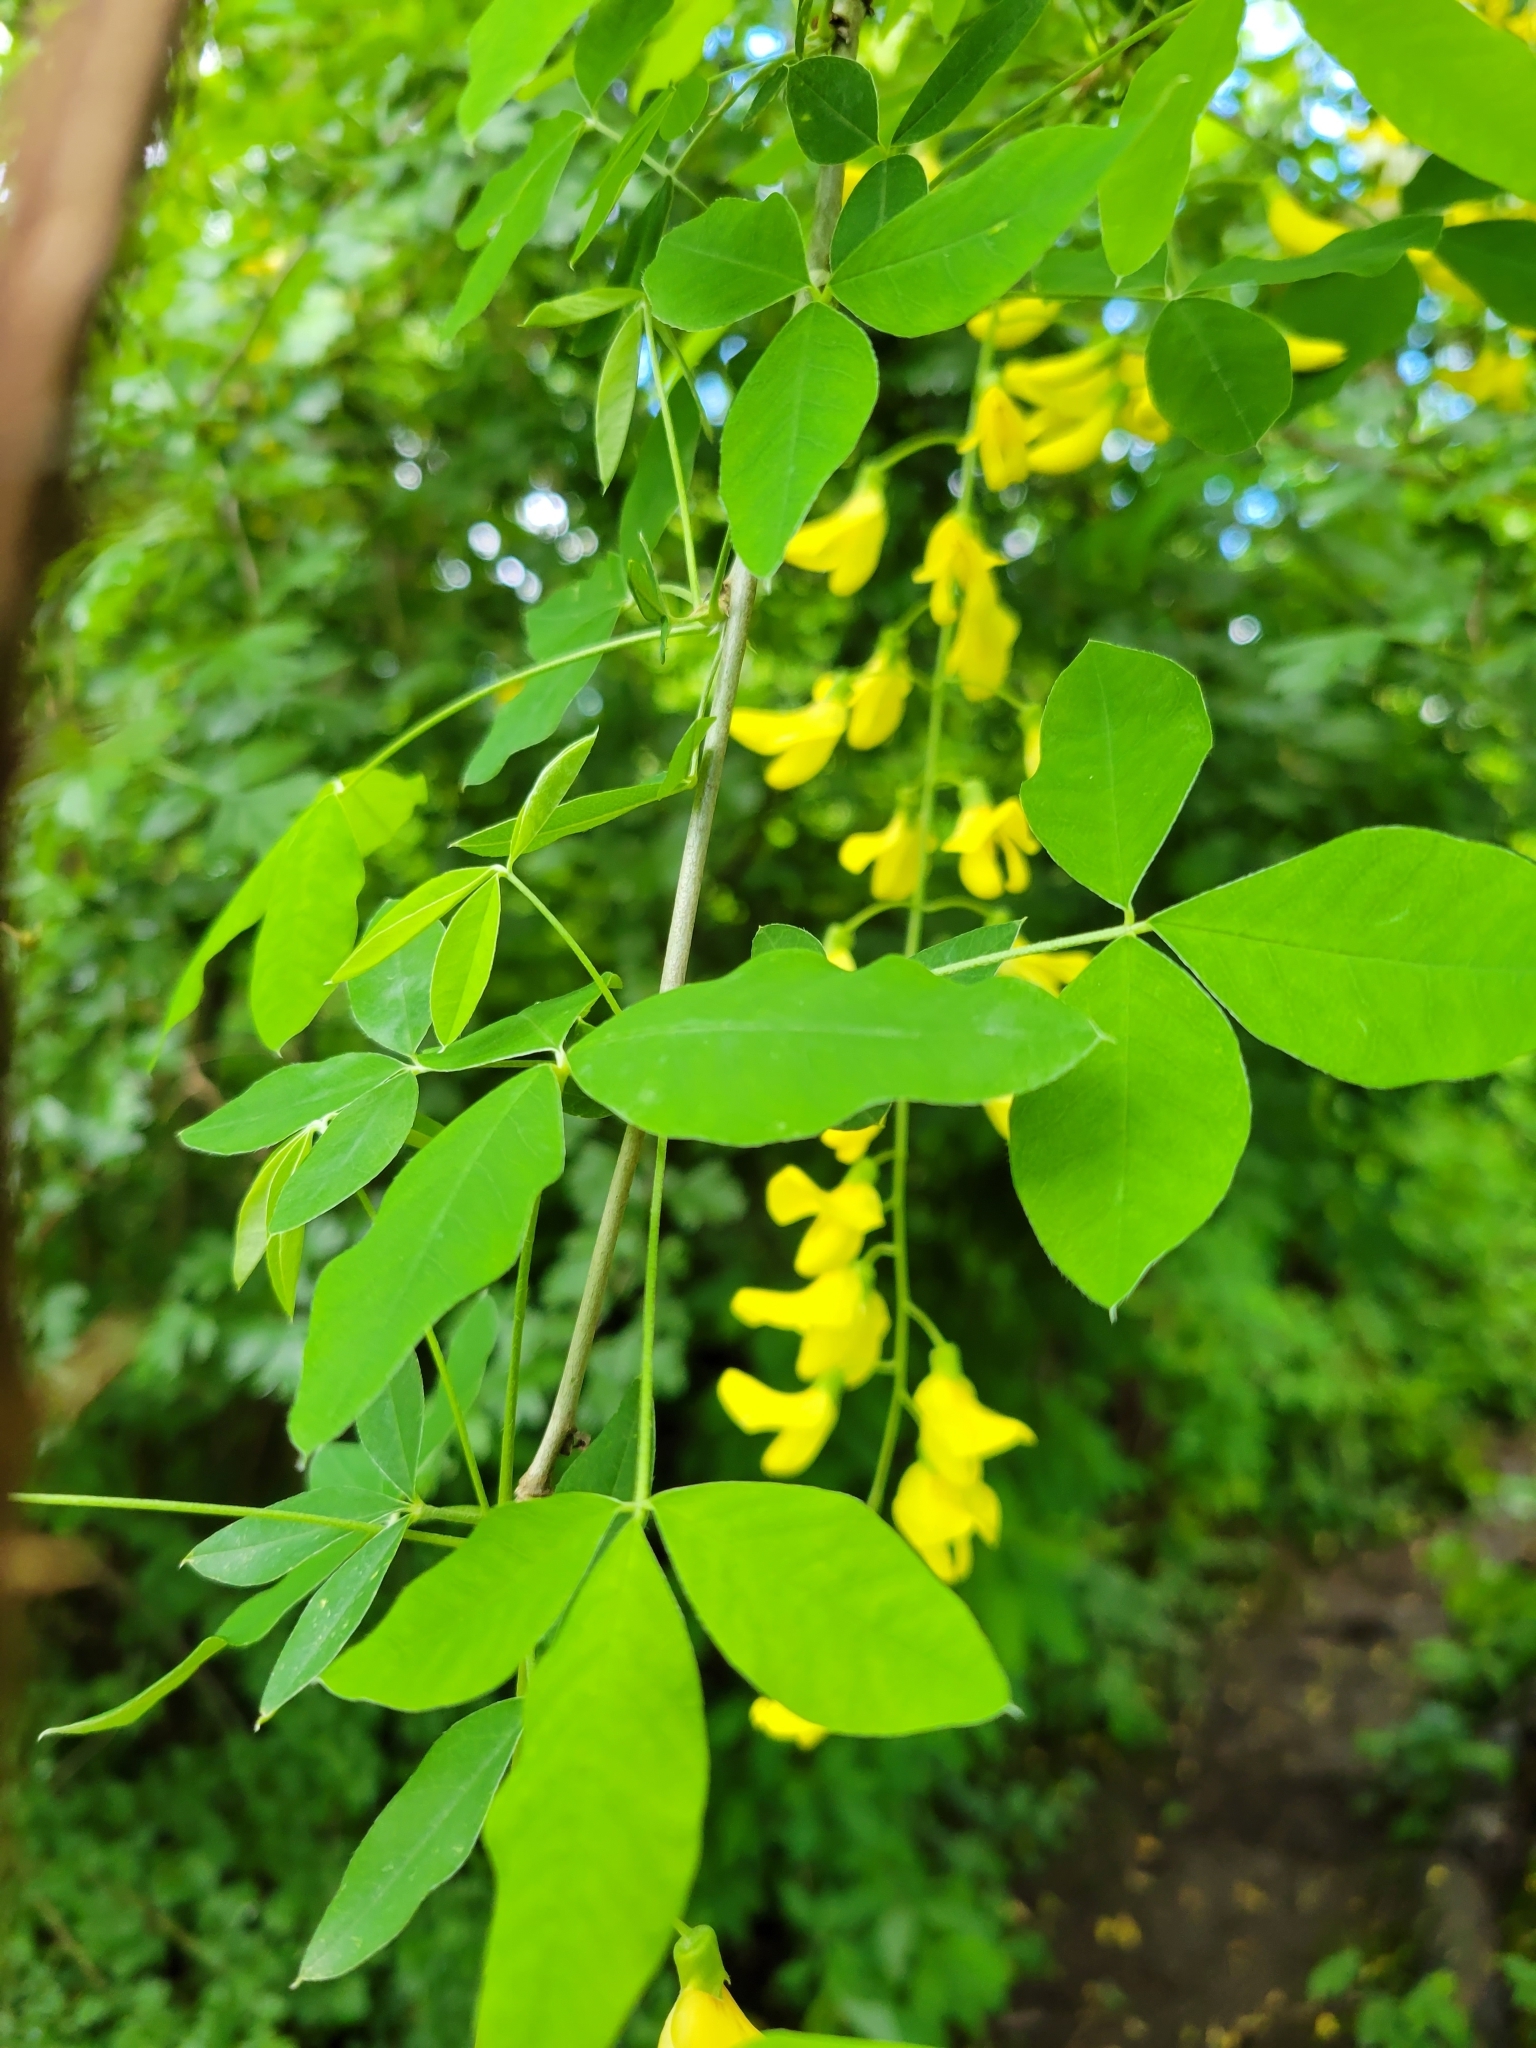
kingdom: Plantae
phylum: Tracheophyta
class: Magnoliopsida
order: Fabales
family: Fabaceae
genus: Laburnum
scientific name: Laburnum anagyroides
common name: Laburnum
